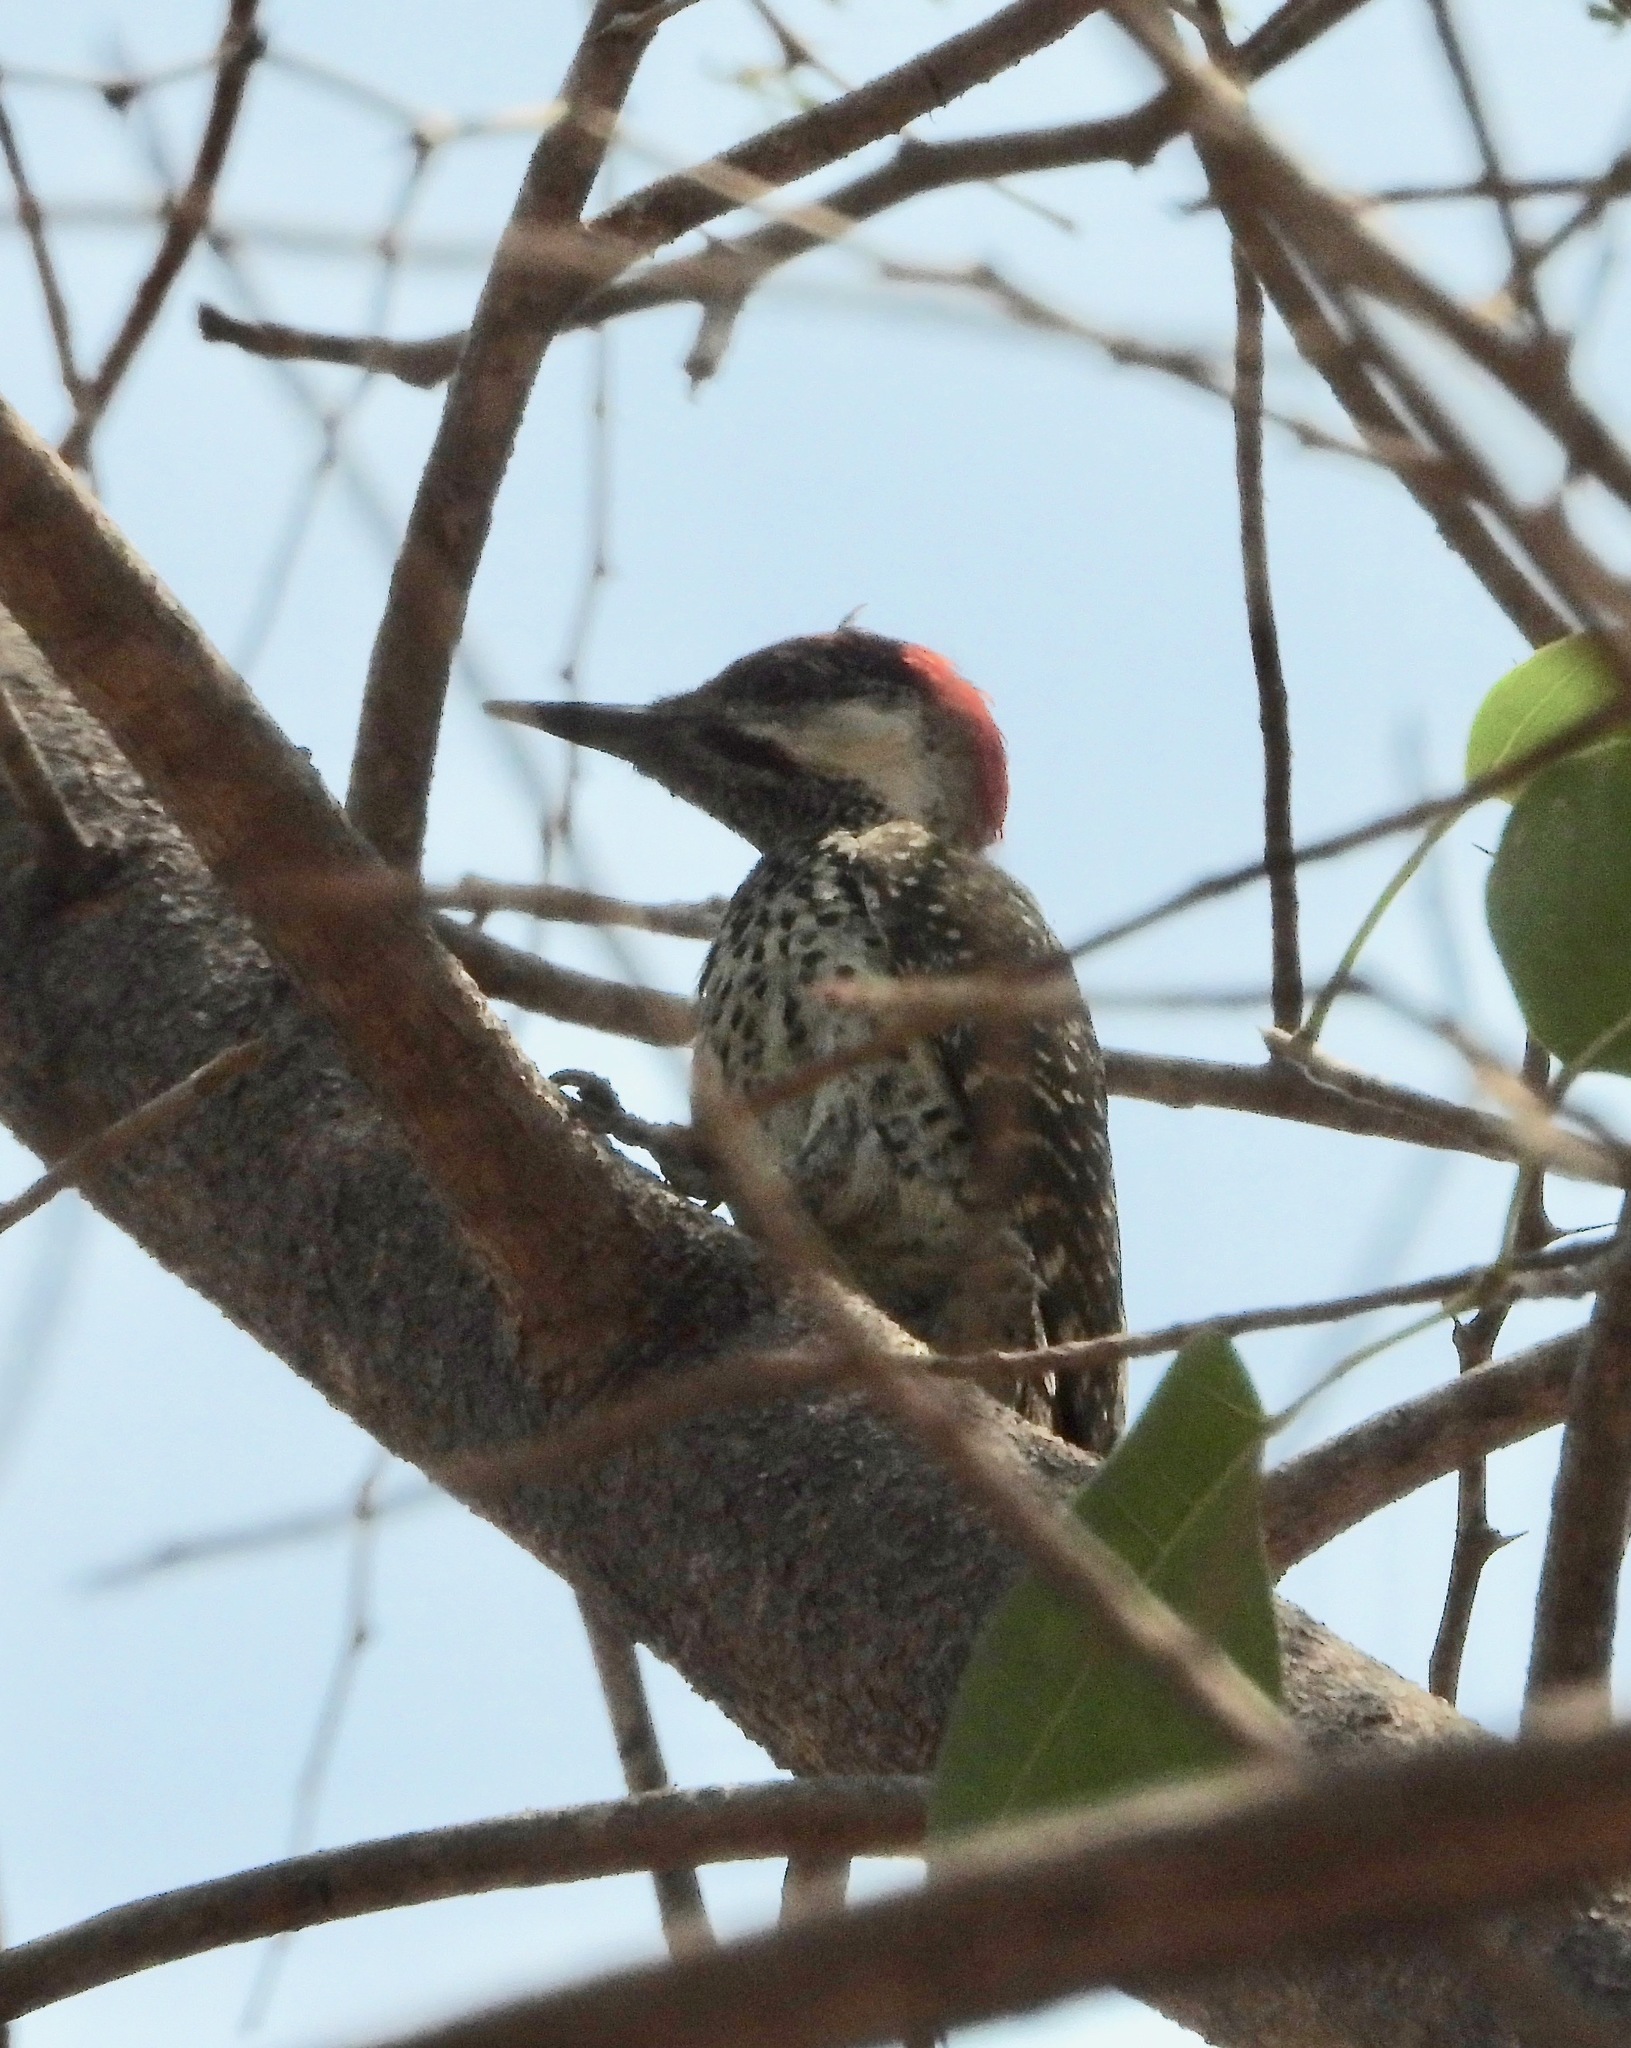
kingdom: Animalia
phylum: Chordata
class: Aves
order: Piciformes
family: Picidae
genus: Campethera
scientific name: Campethera abingoni
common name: Golden-tailed woodpecker
